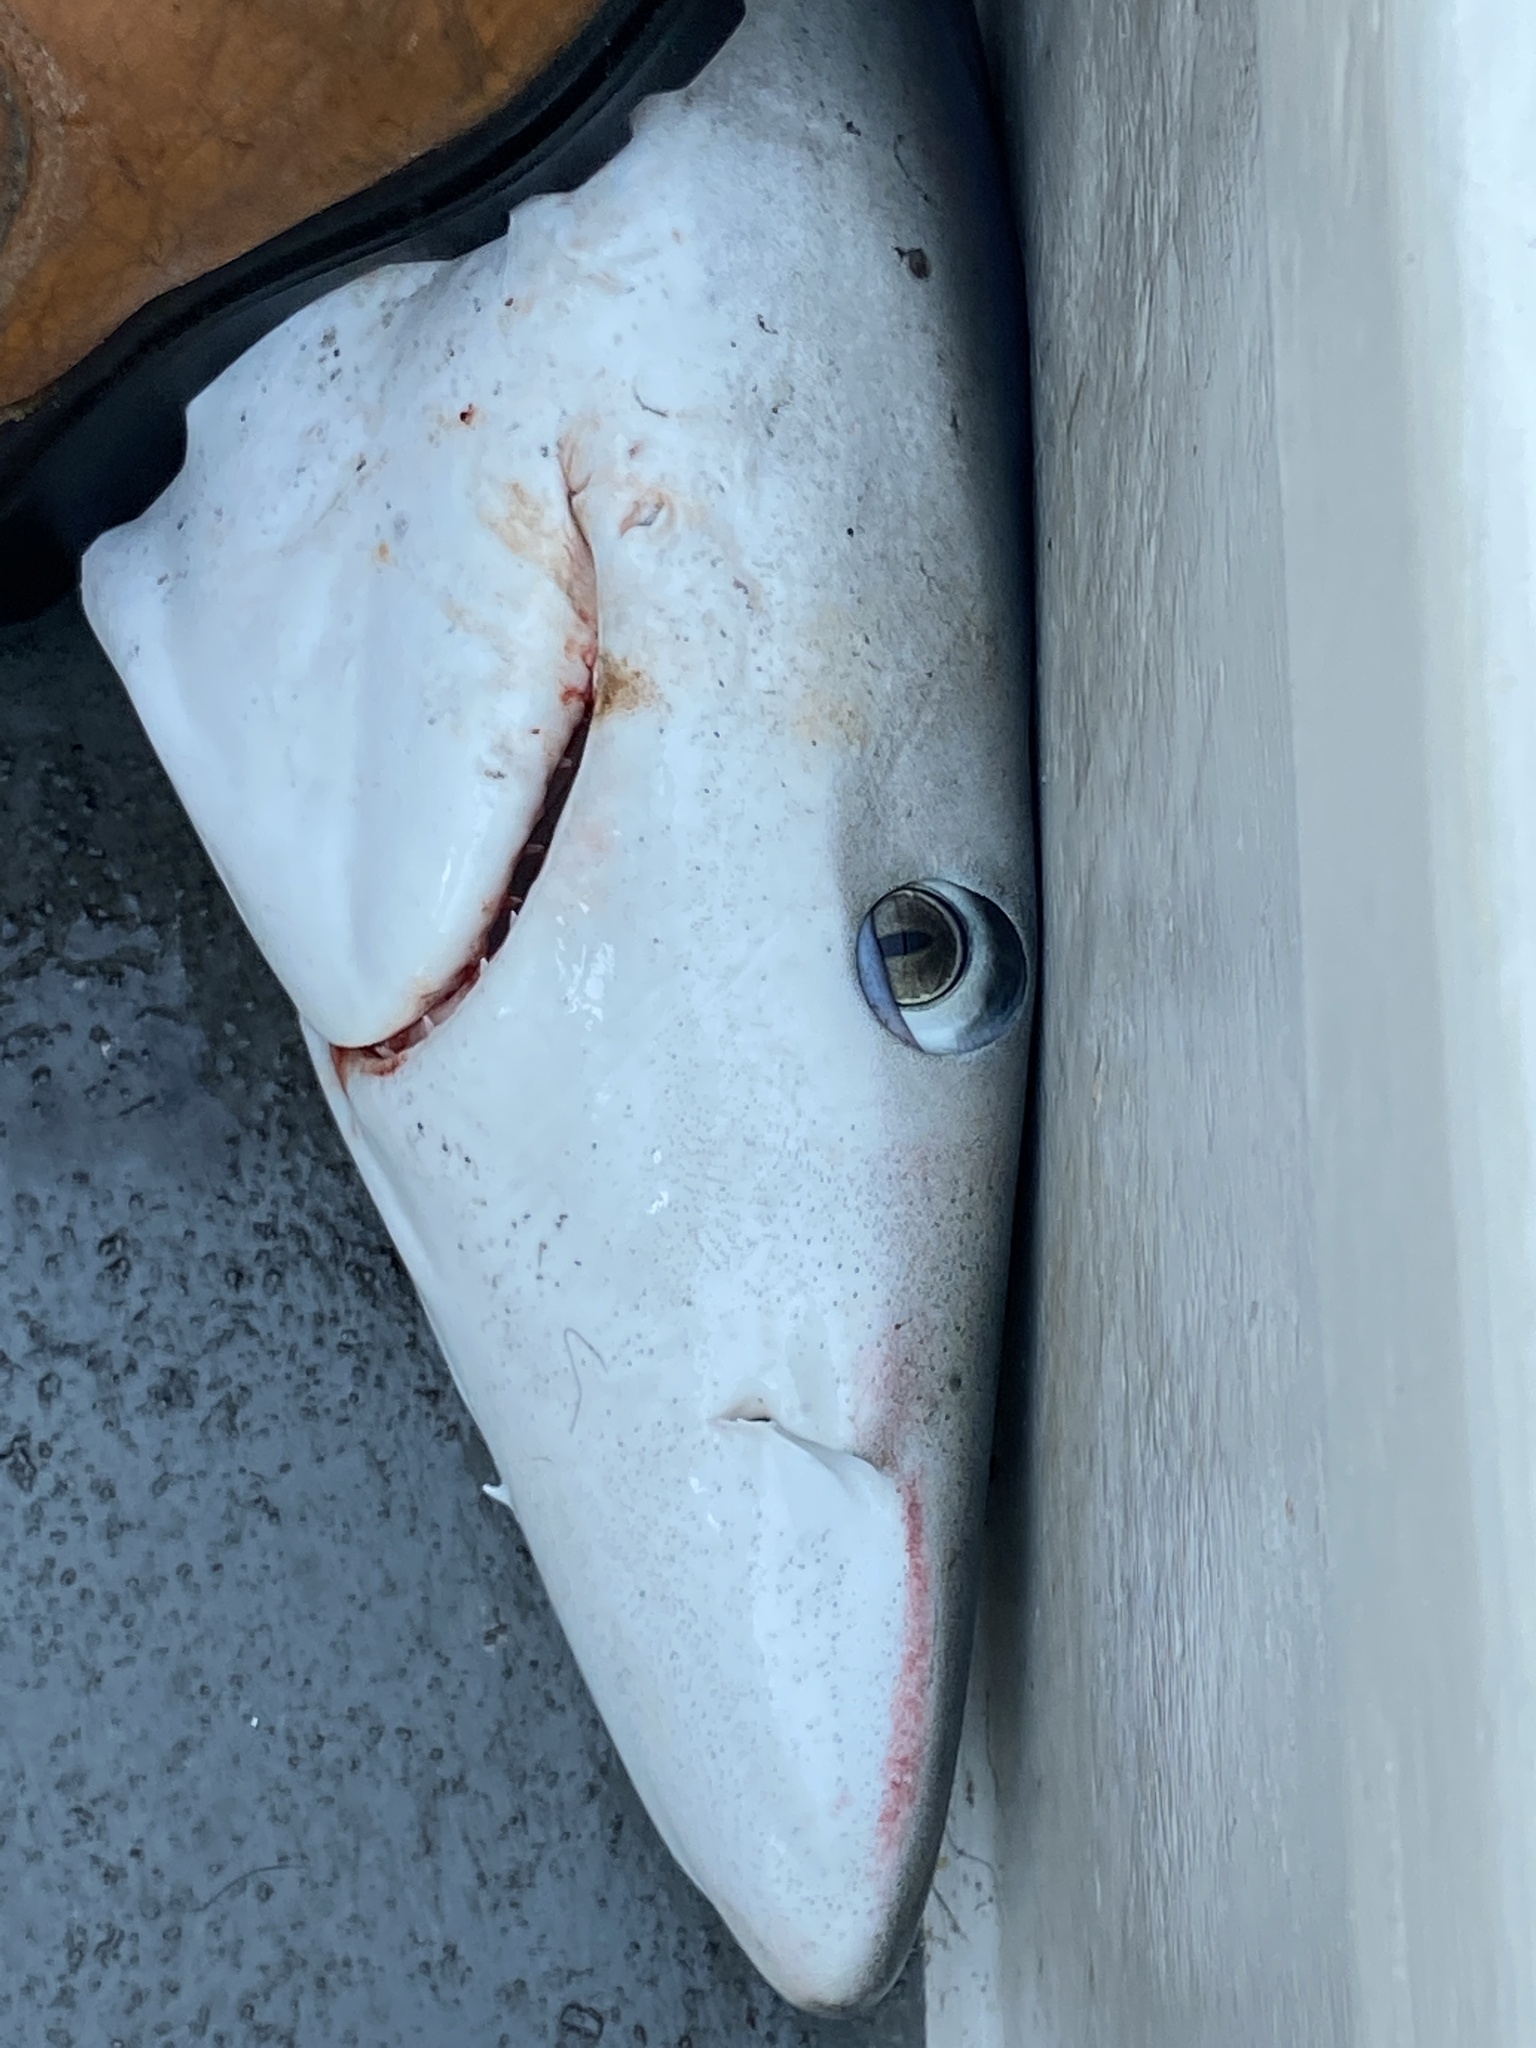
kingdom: Animalia
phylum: Chordata
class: Elasmobranchii
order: Carcharhiniformes
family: Carcharhinidae
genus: Prionace
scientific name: Prionace glauca
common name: Blue shark
